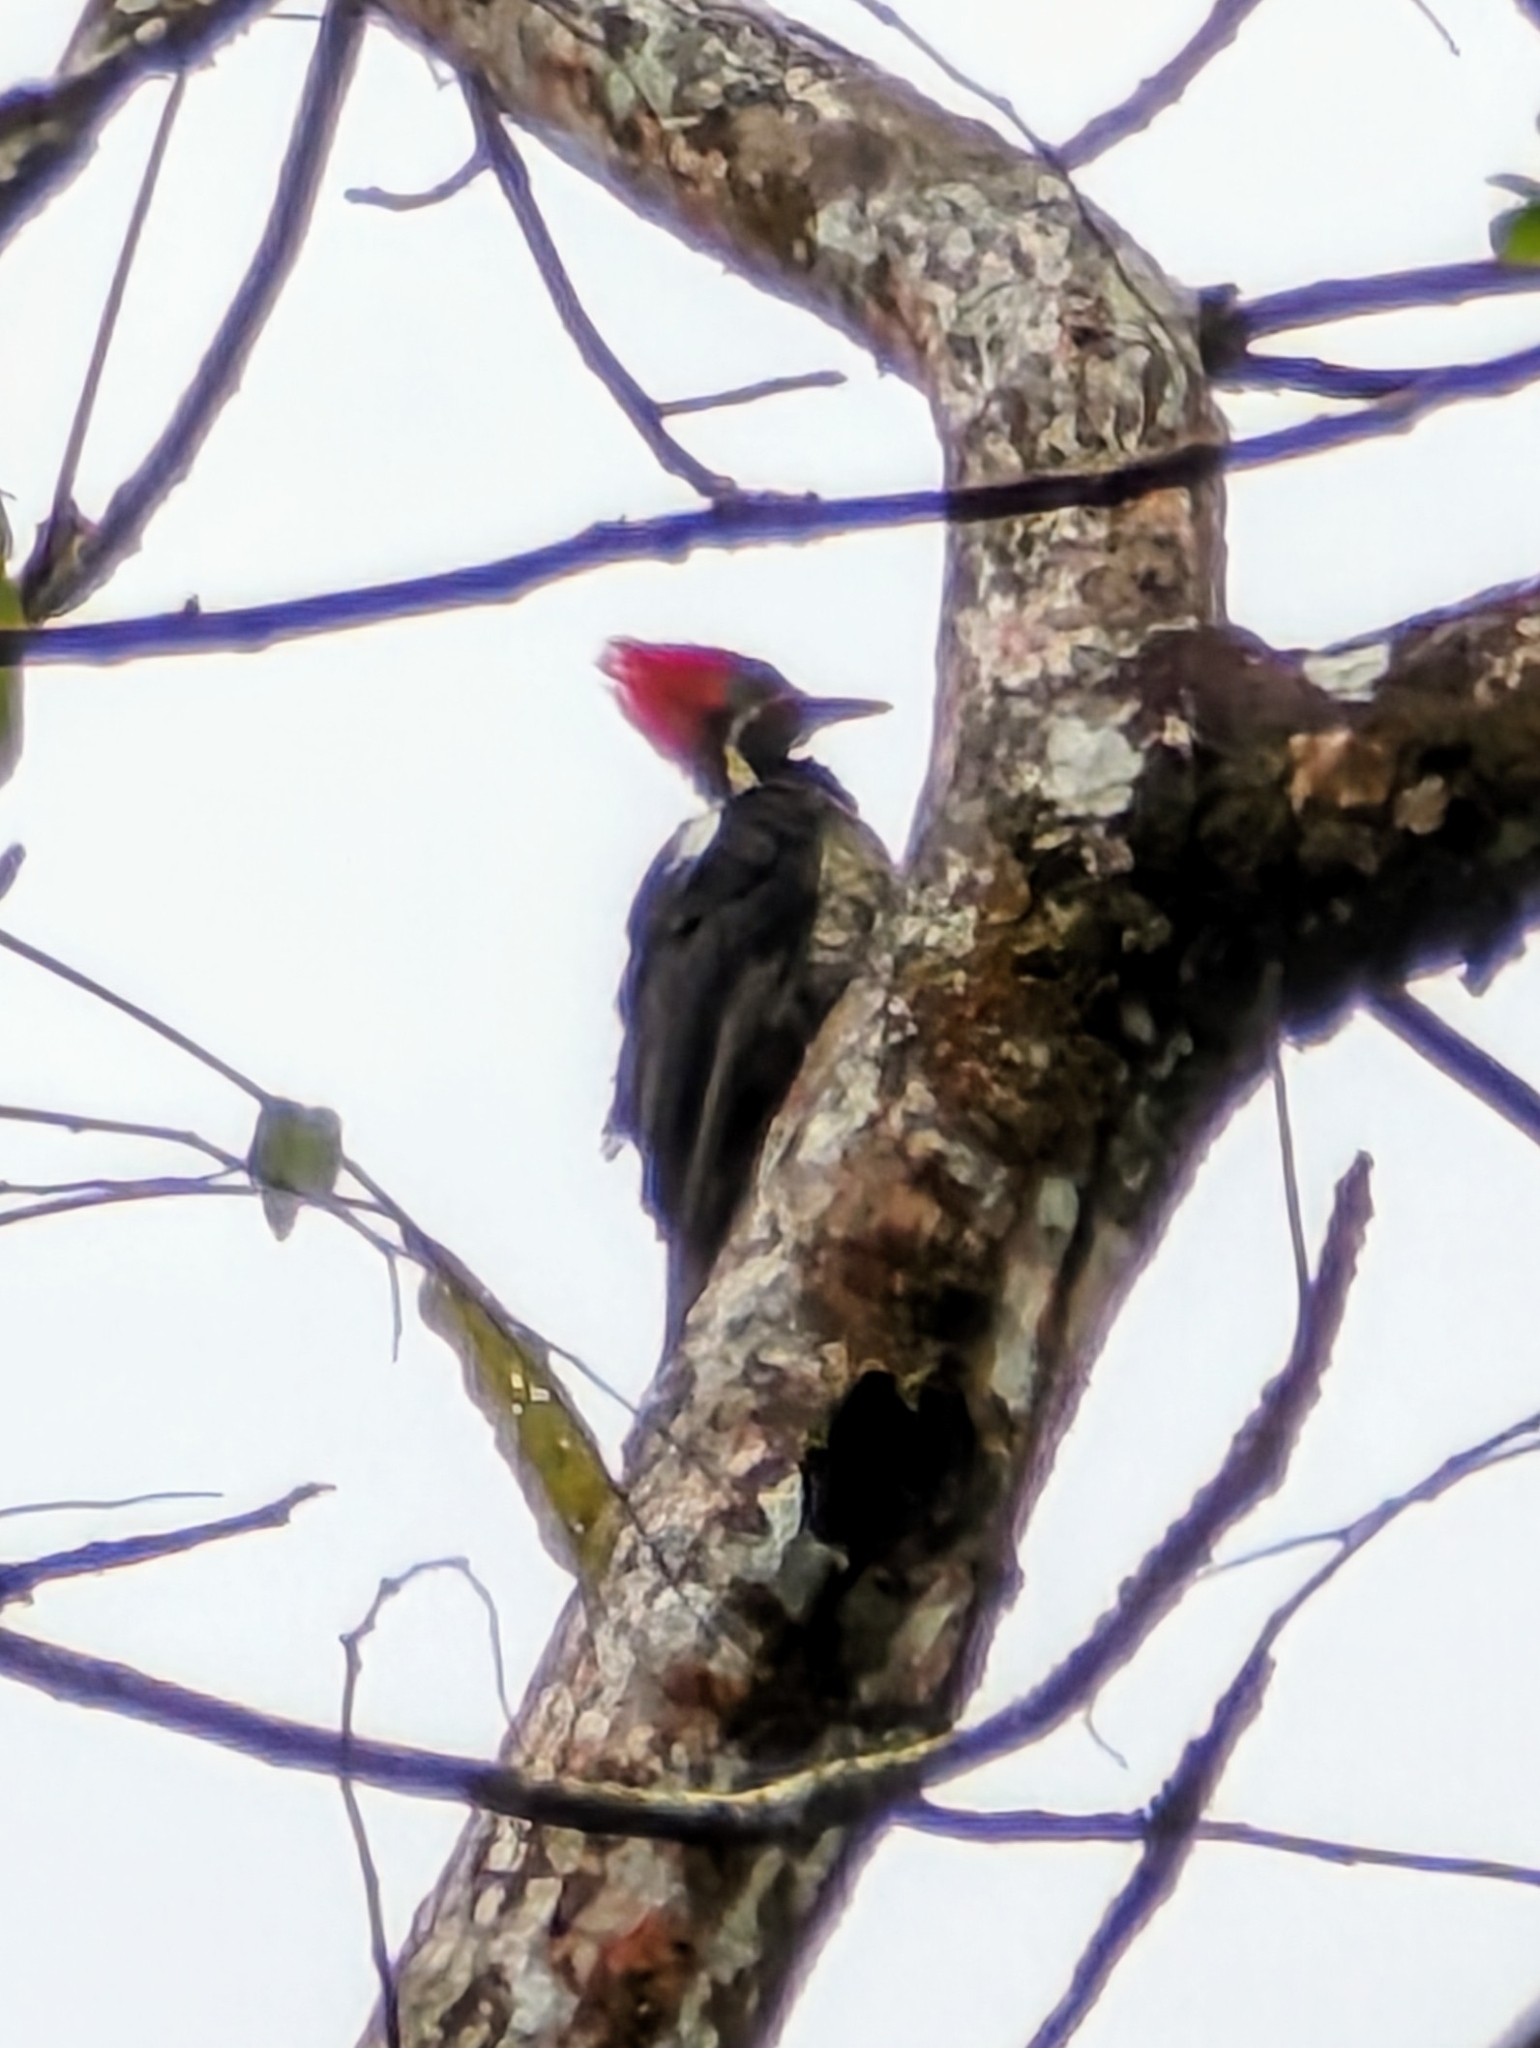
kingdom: Animalia
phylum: Chordata
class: Aves
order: Piciformes
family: Picidae
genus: Dryocopus
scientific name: Dryocopus lineatus
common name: Lineated woodpecker
